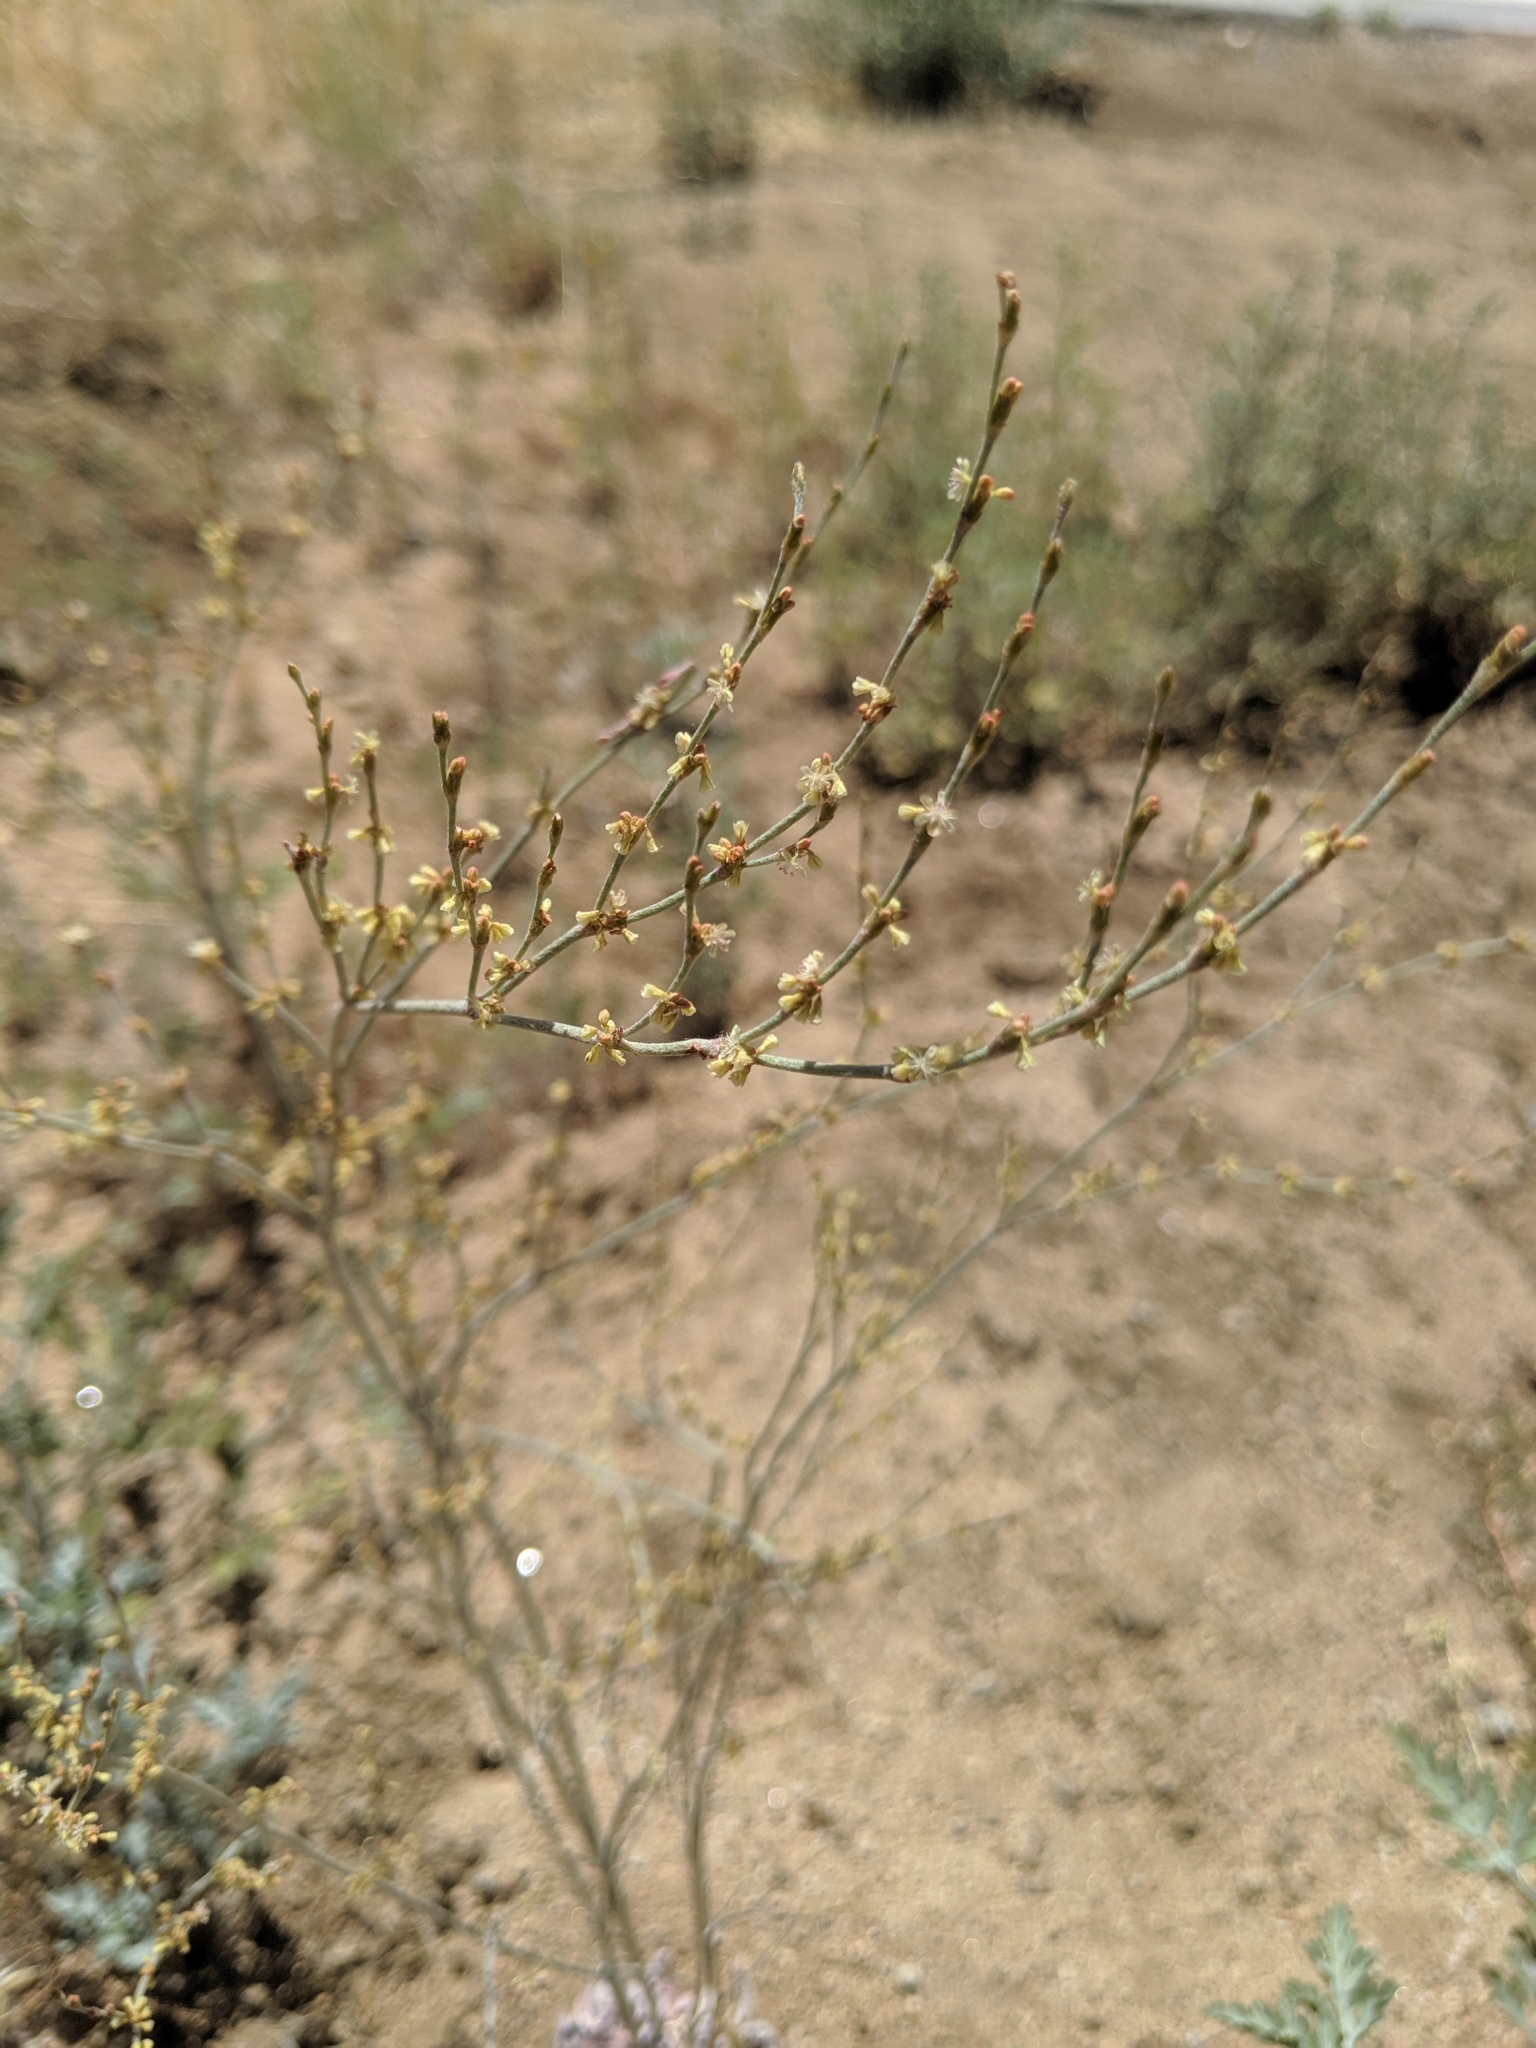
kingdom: Plantae
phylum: Tracheophyta
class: Magnoliopsida
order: Caryophyllales
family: Polygonaceae
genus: Eriogonum
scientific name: Eriogonum gracile
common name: Slender woolly buckwheat
